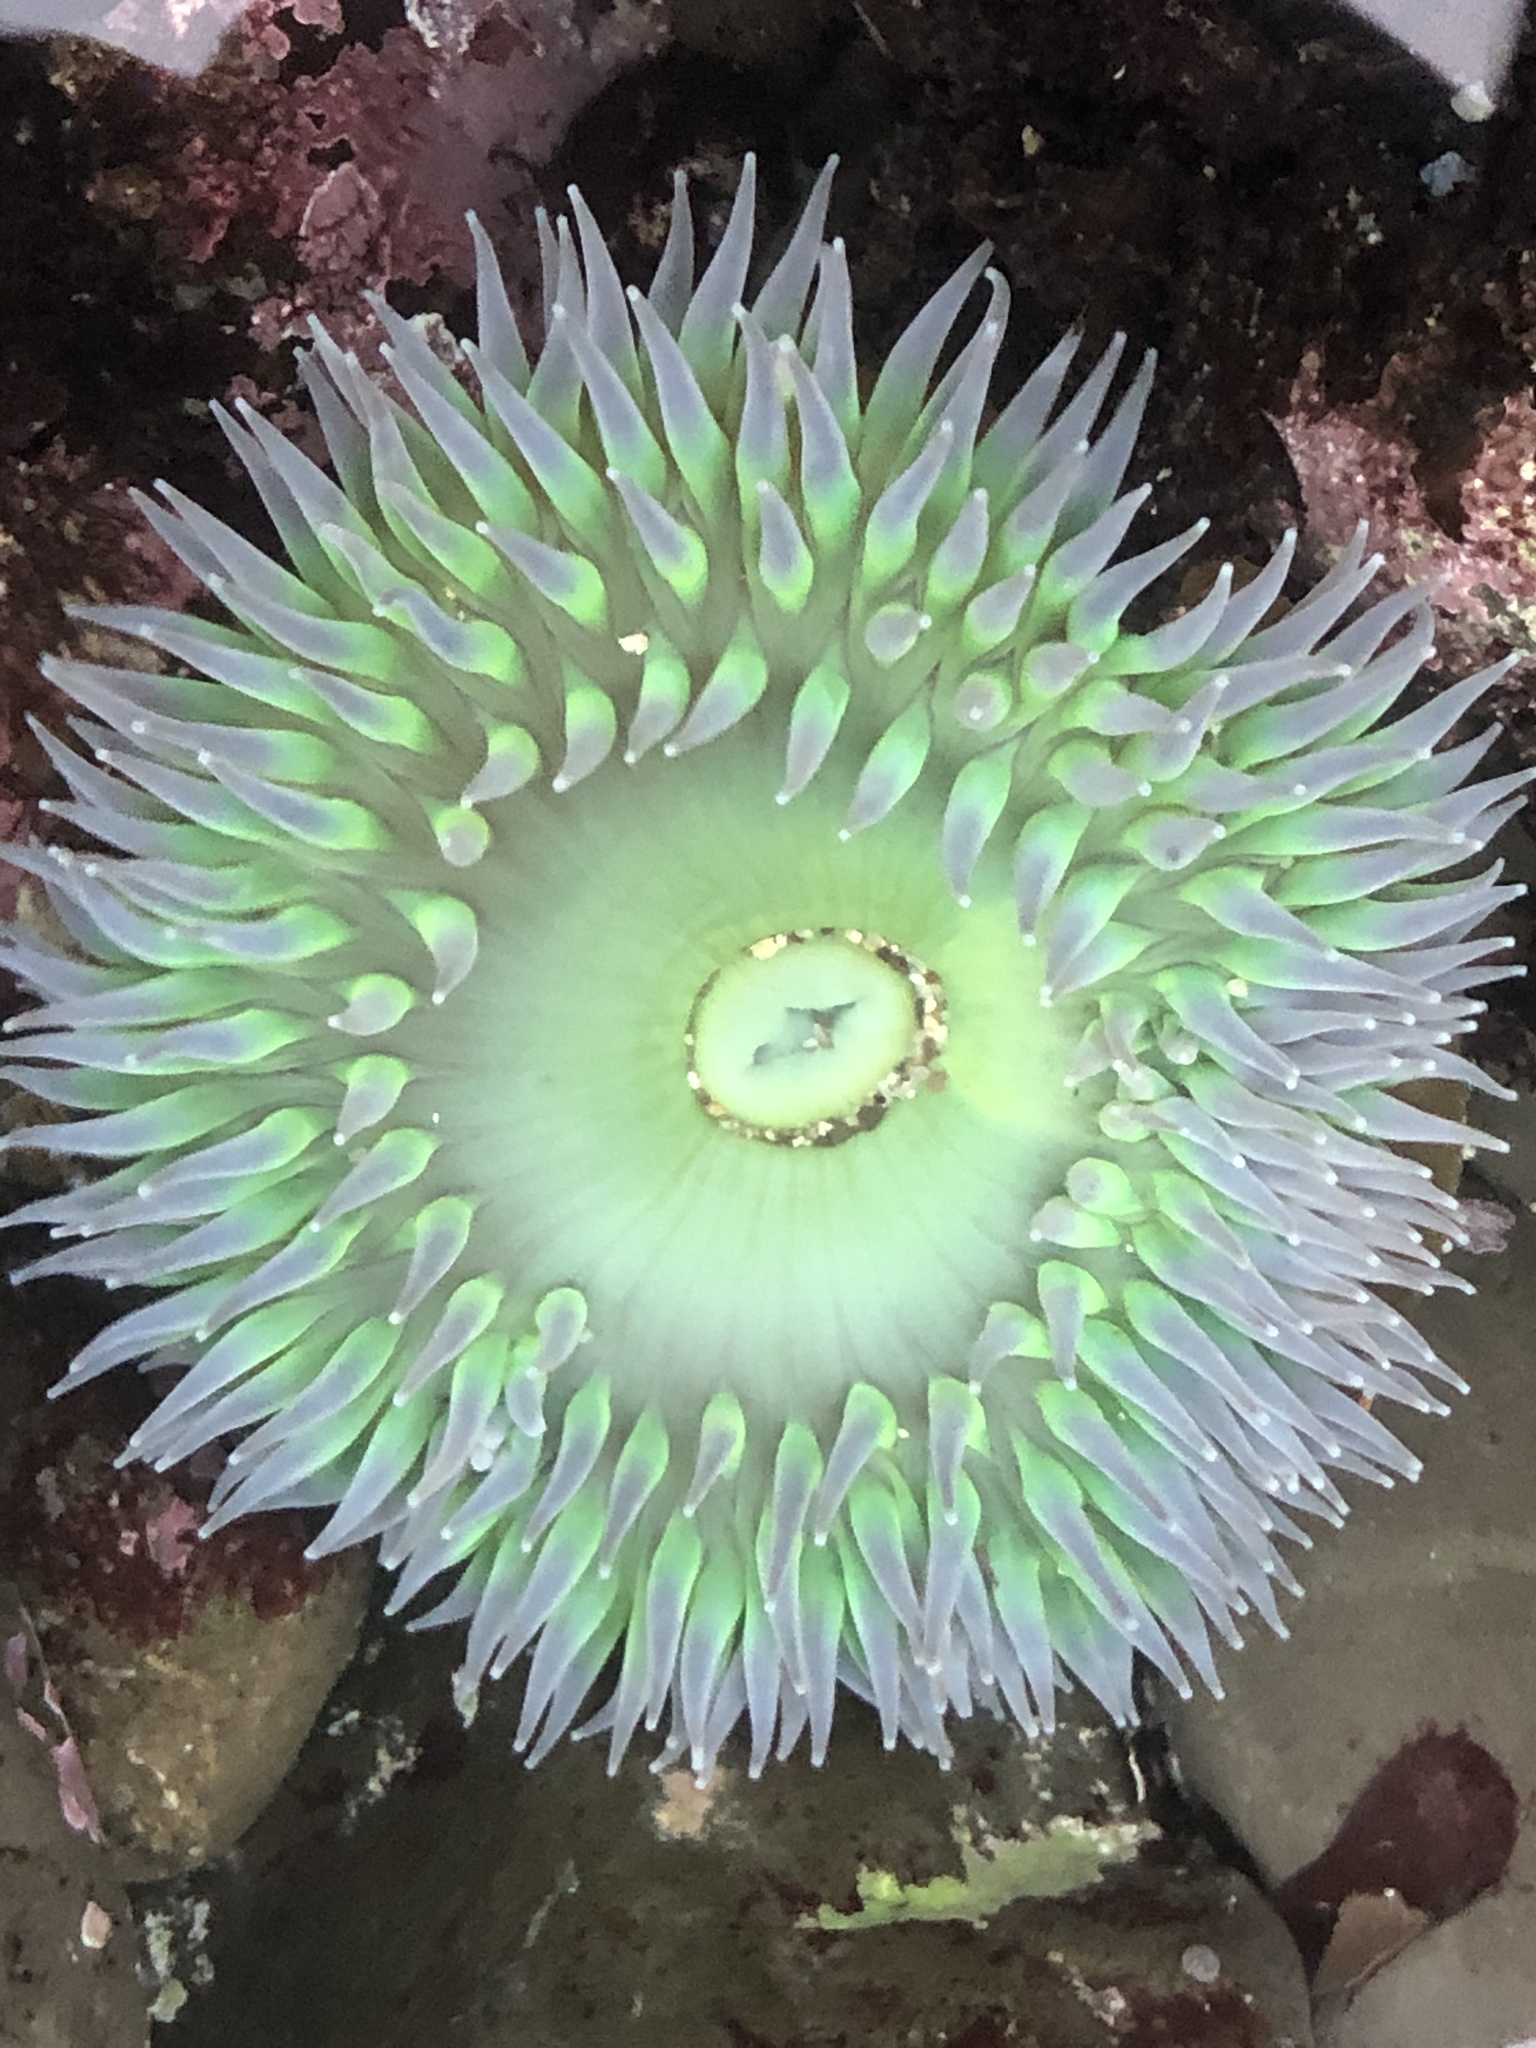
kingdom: Animalia
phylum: Cnidaria
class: Anthozoa
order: Actiniaria
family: Actiniidae
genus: Anthopleura
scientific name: Anthopleura xanthogrammica
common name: Giant green anemone
